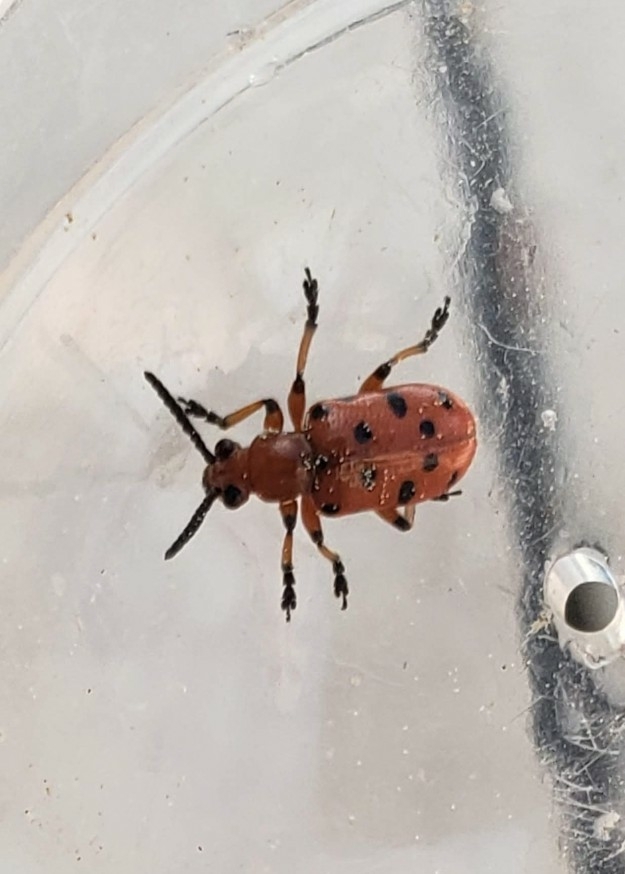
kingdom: Animalia
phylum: Arthropoda
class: Insecta
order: Coleoptera
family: Chrysomelidae
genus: Crioceris
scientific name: Crioceris duodecimpunctata
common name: Twelve-spotted asparagus beetle
